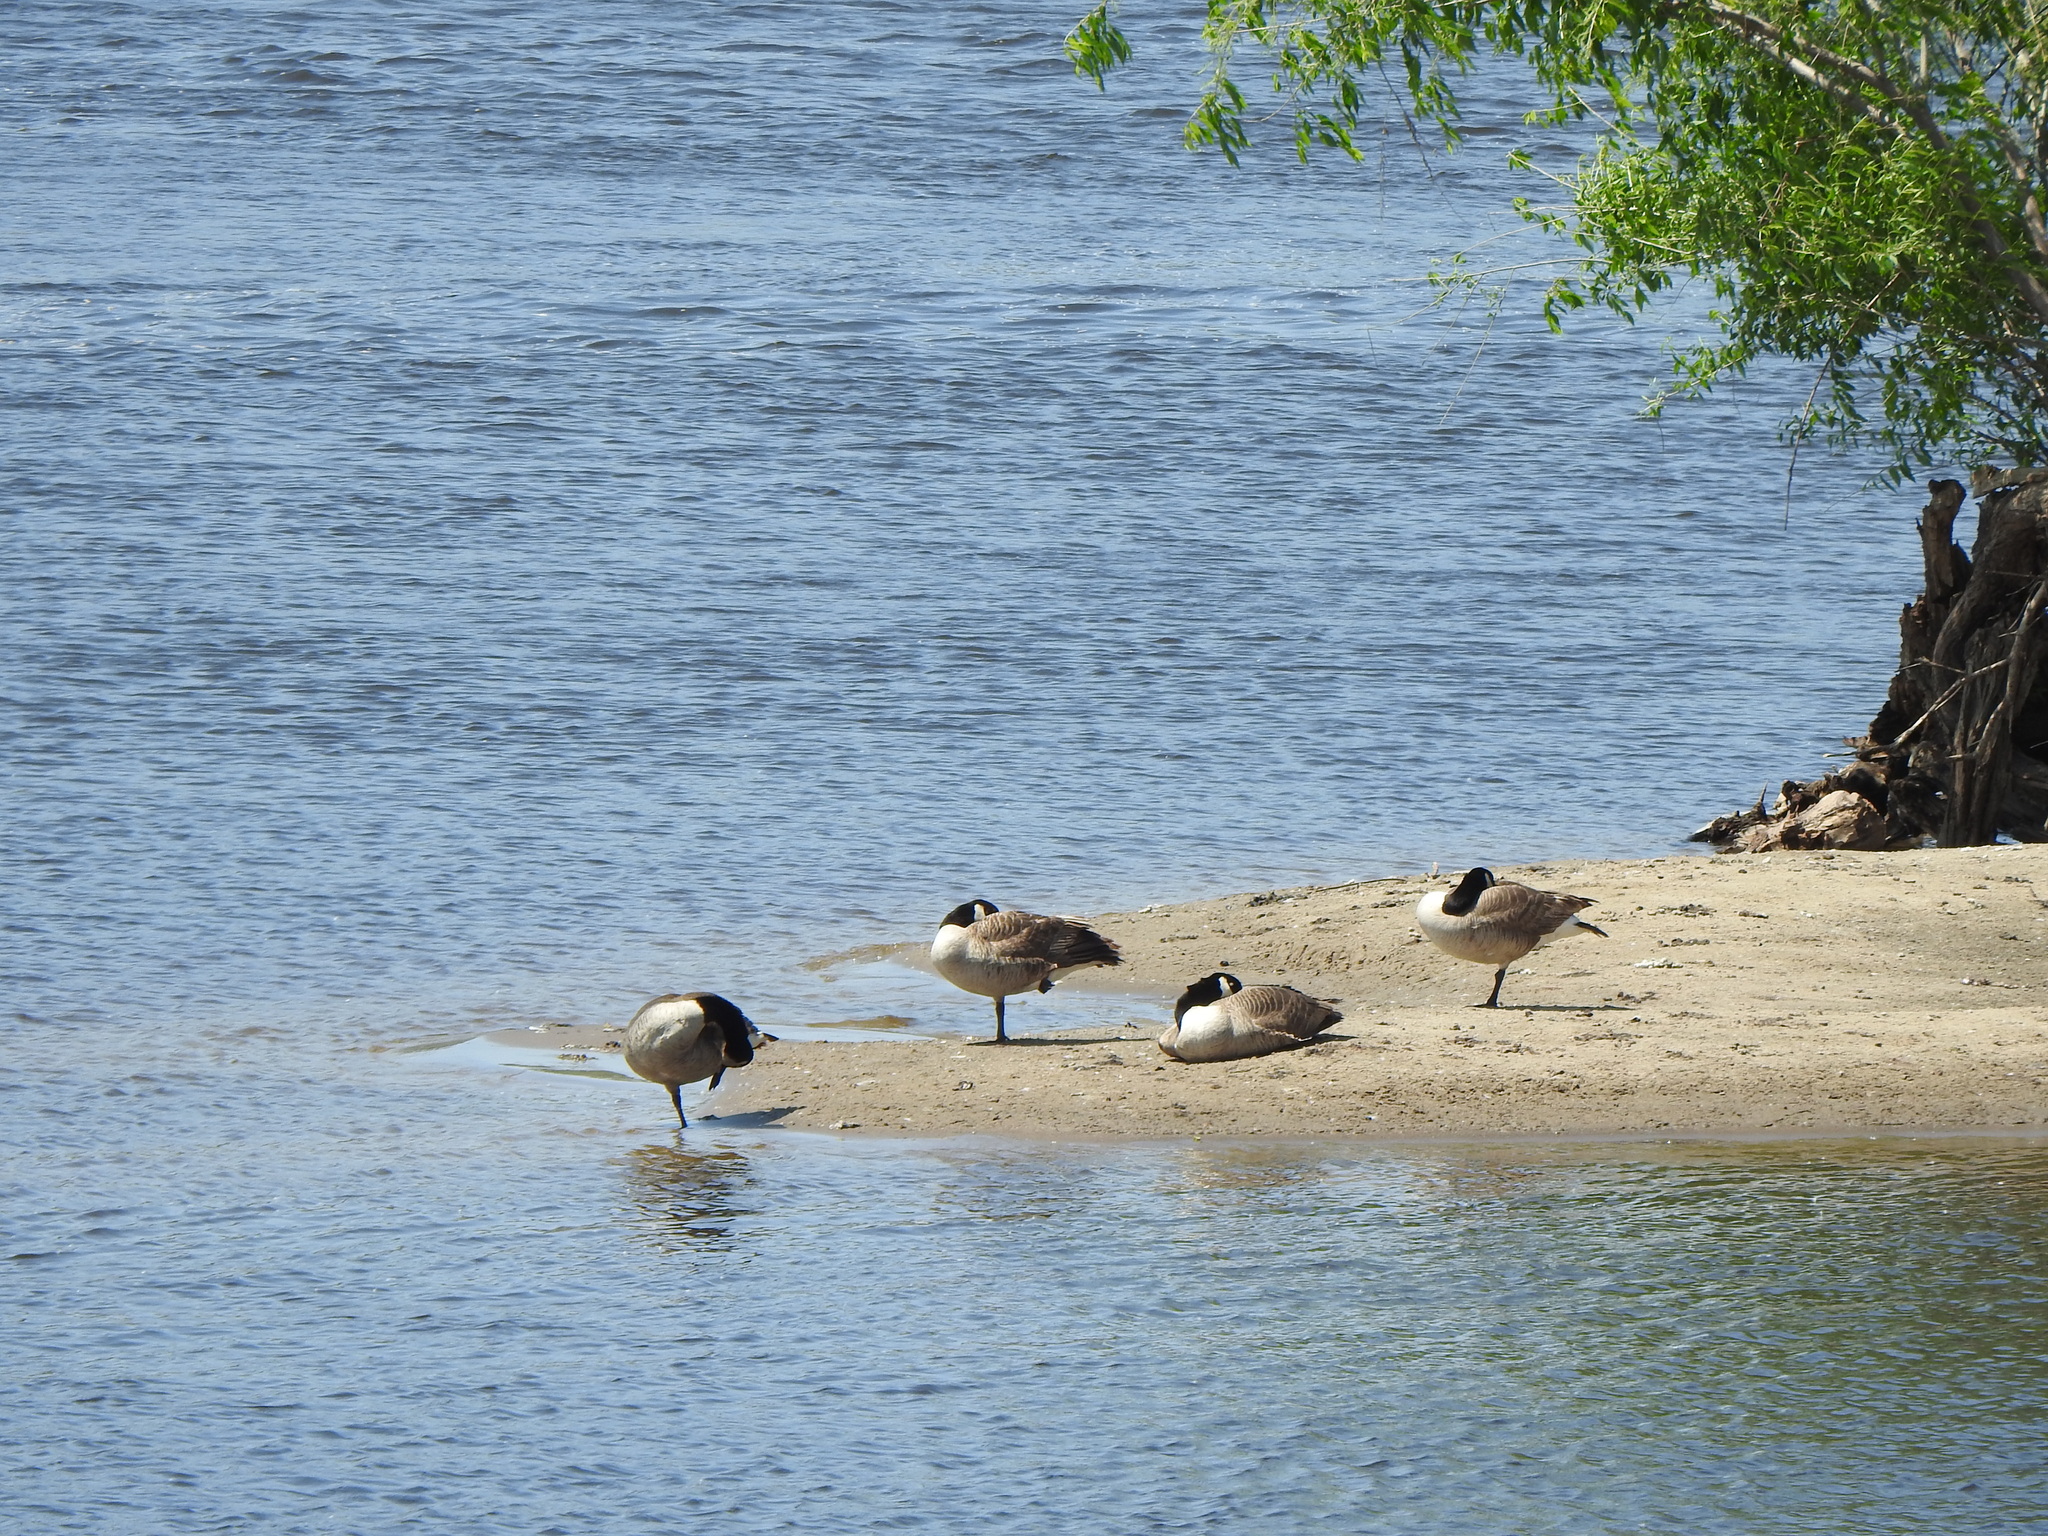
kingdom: Animalia
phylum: Chordata
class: Aves
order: Anseriformes
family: Anatidae
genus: Branta
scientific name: Branta canadensis
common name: Canada goose
